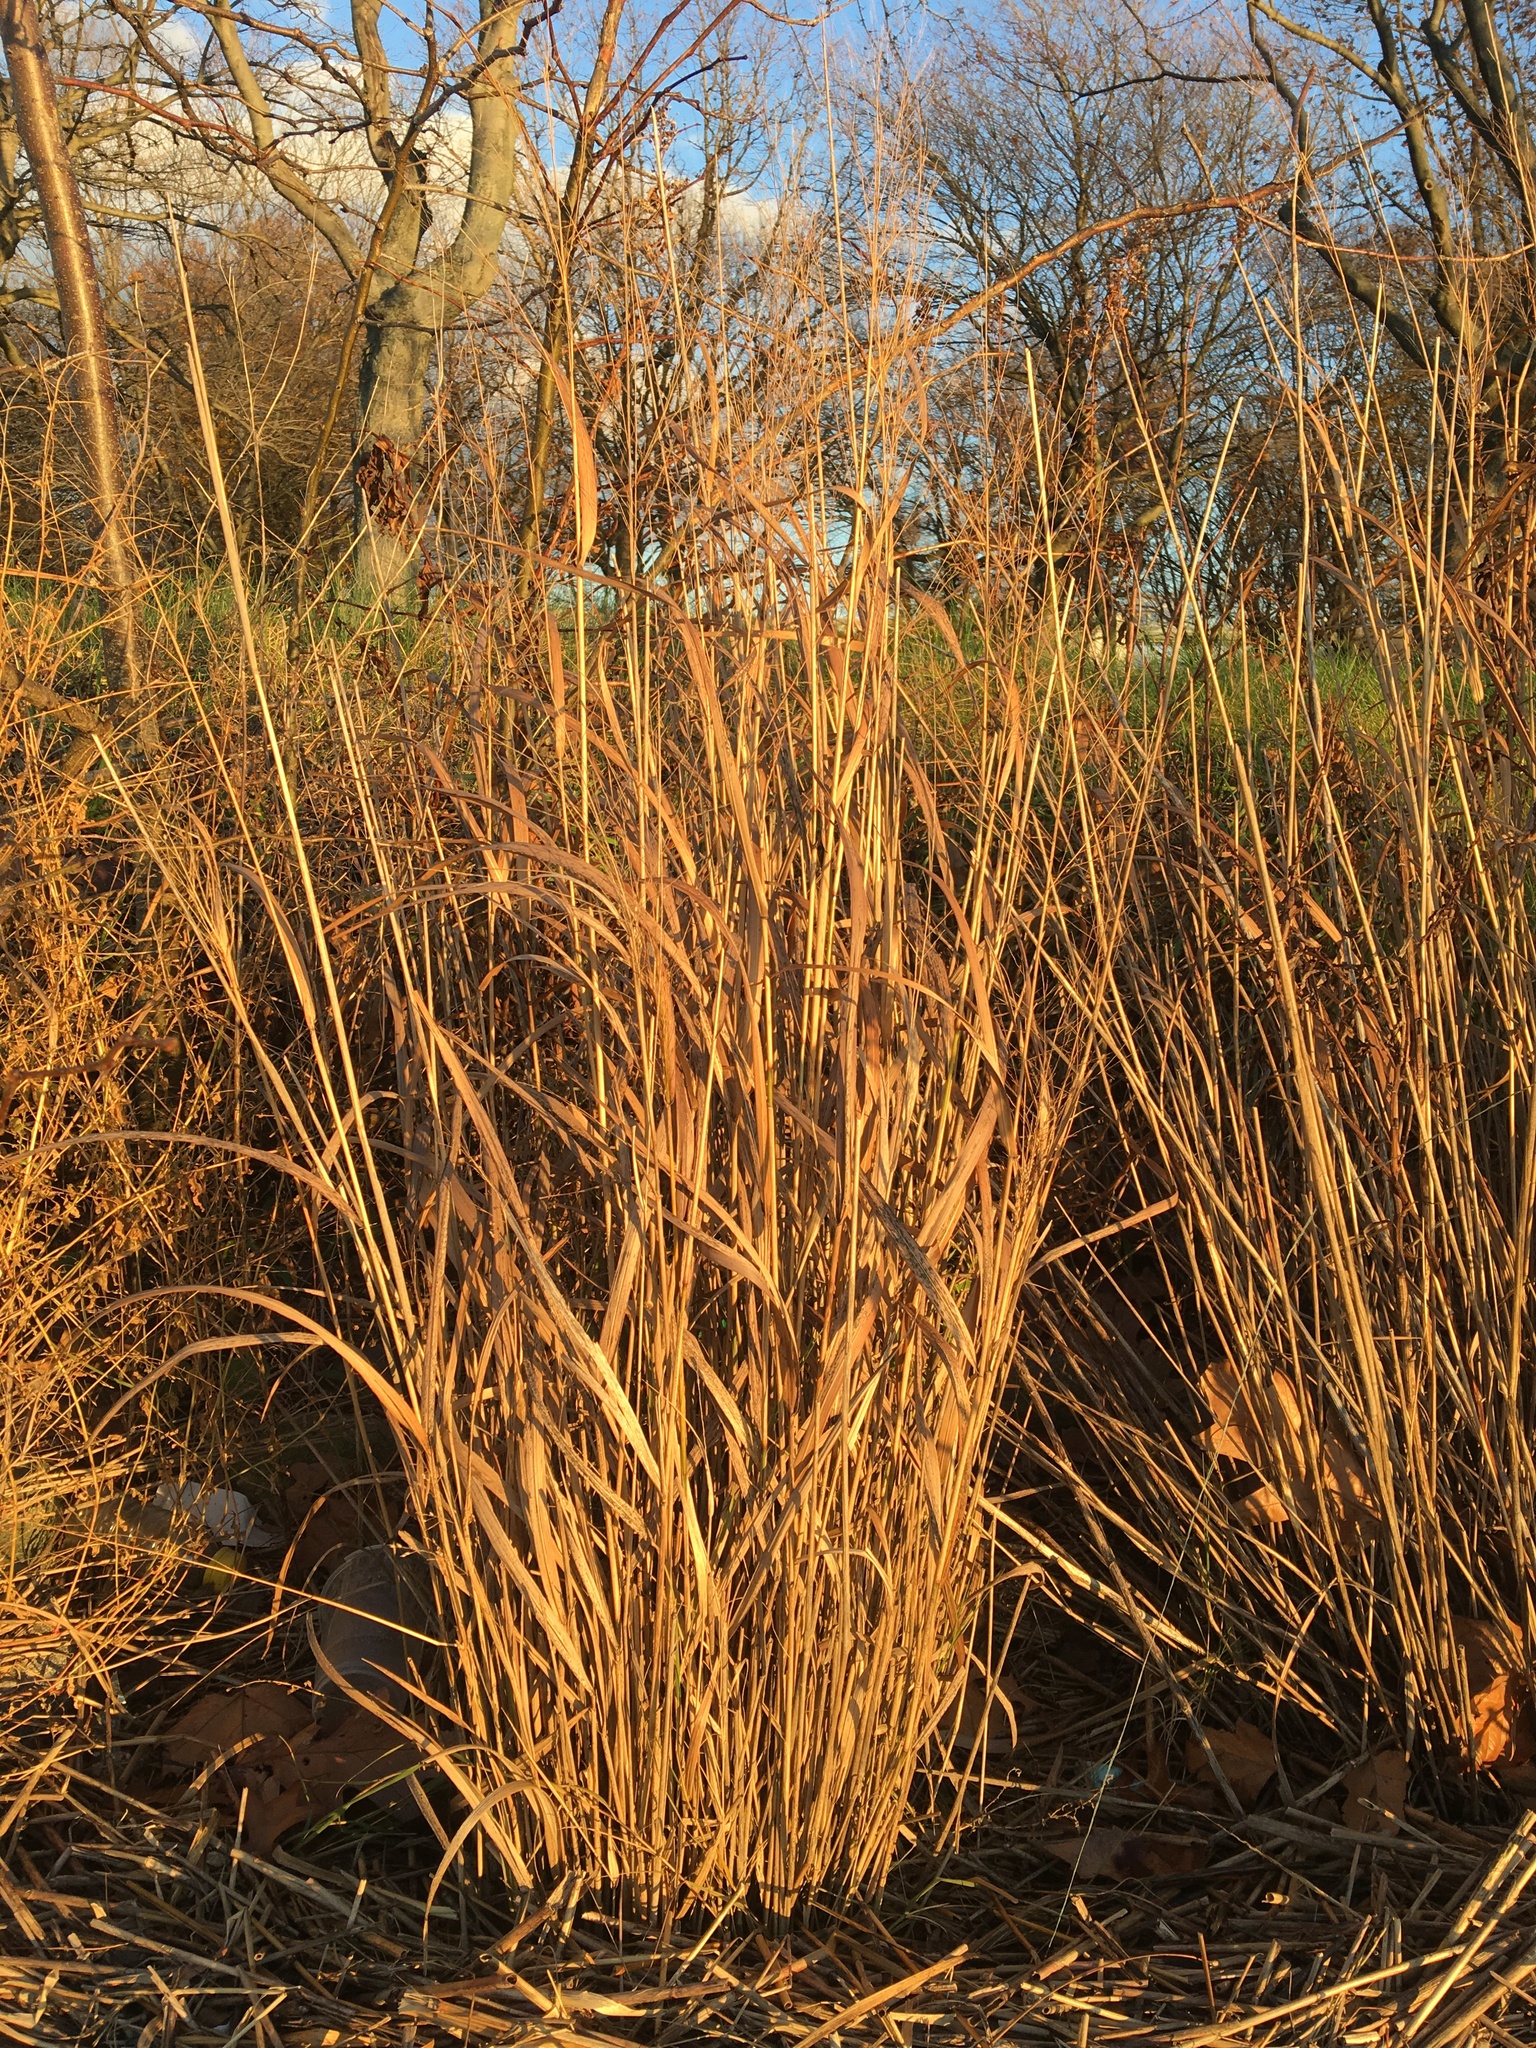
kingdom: Plantae
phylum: Tracheophyta
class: Liliopsida
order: Poales
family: Poaceae
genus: Panicum
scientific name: Panicum virgatum
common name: Switchgrass
